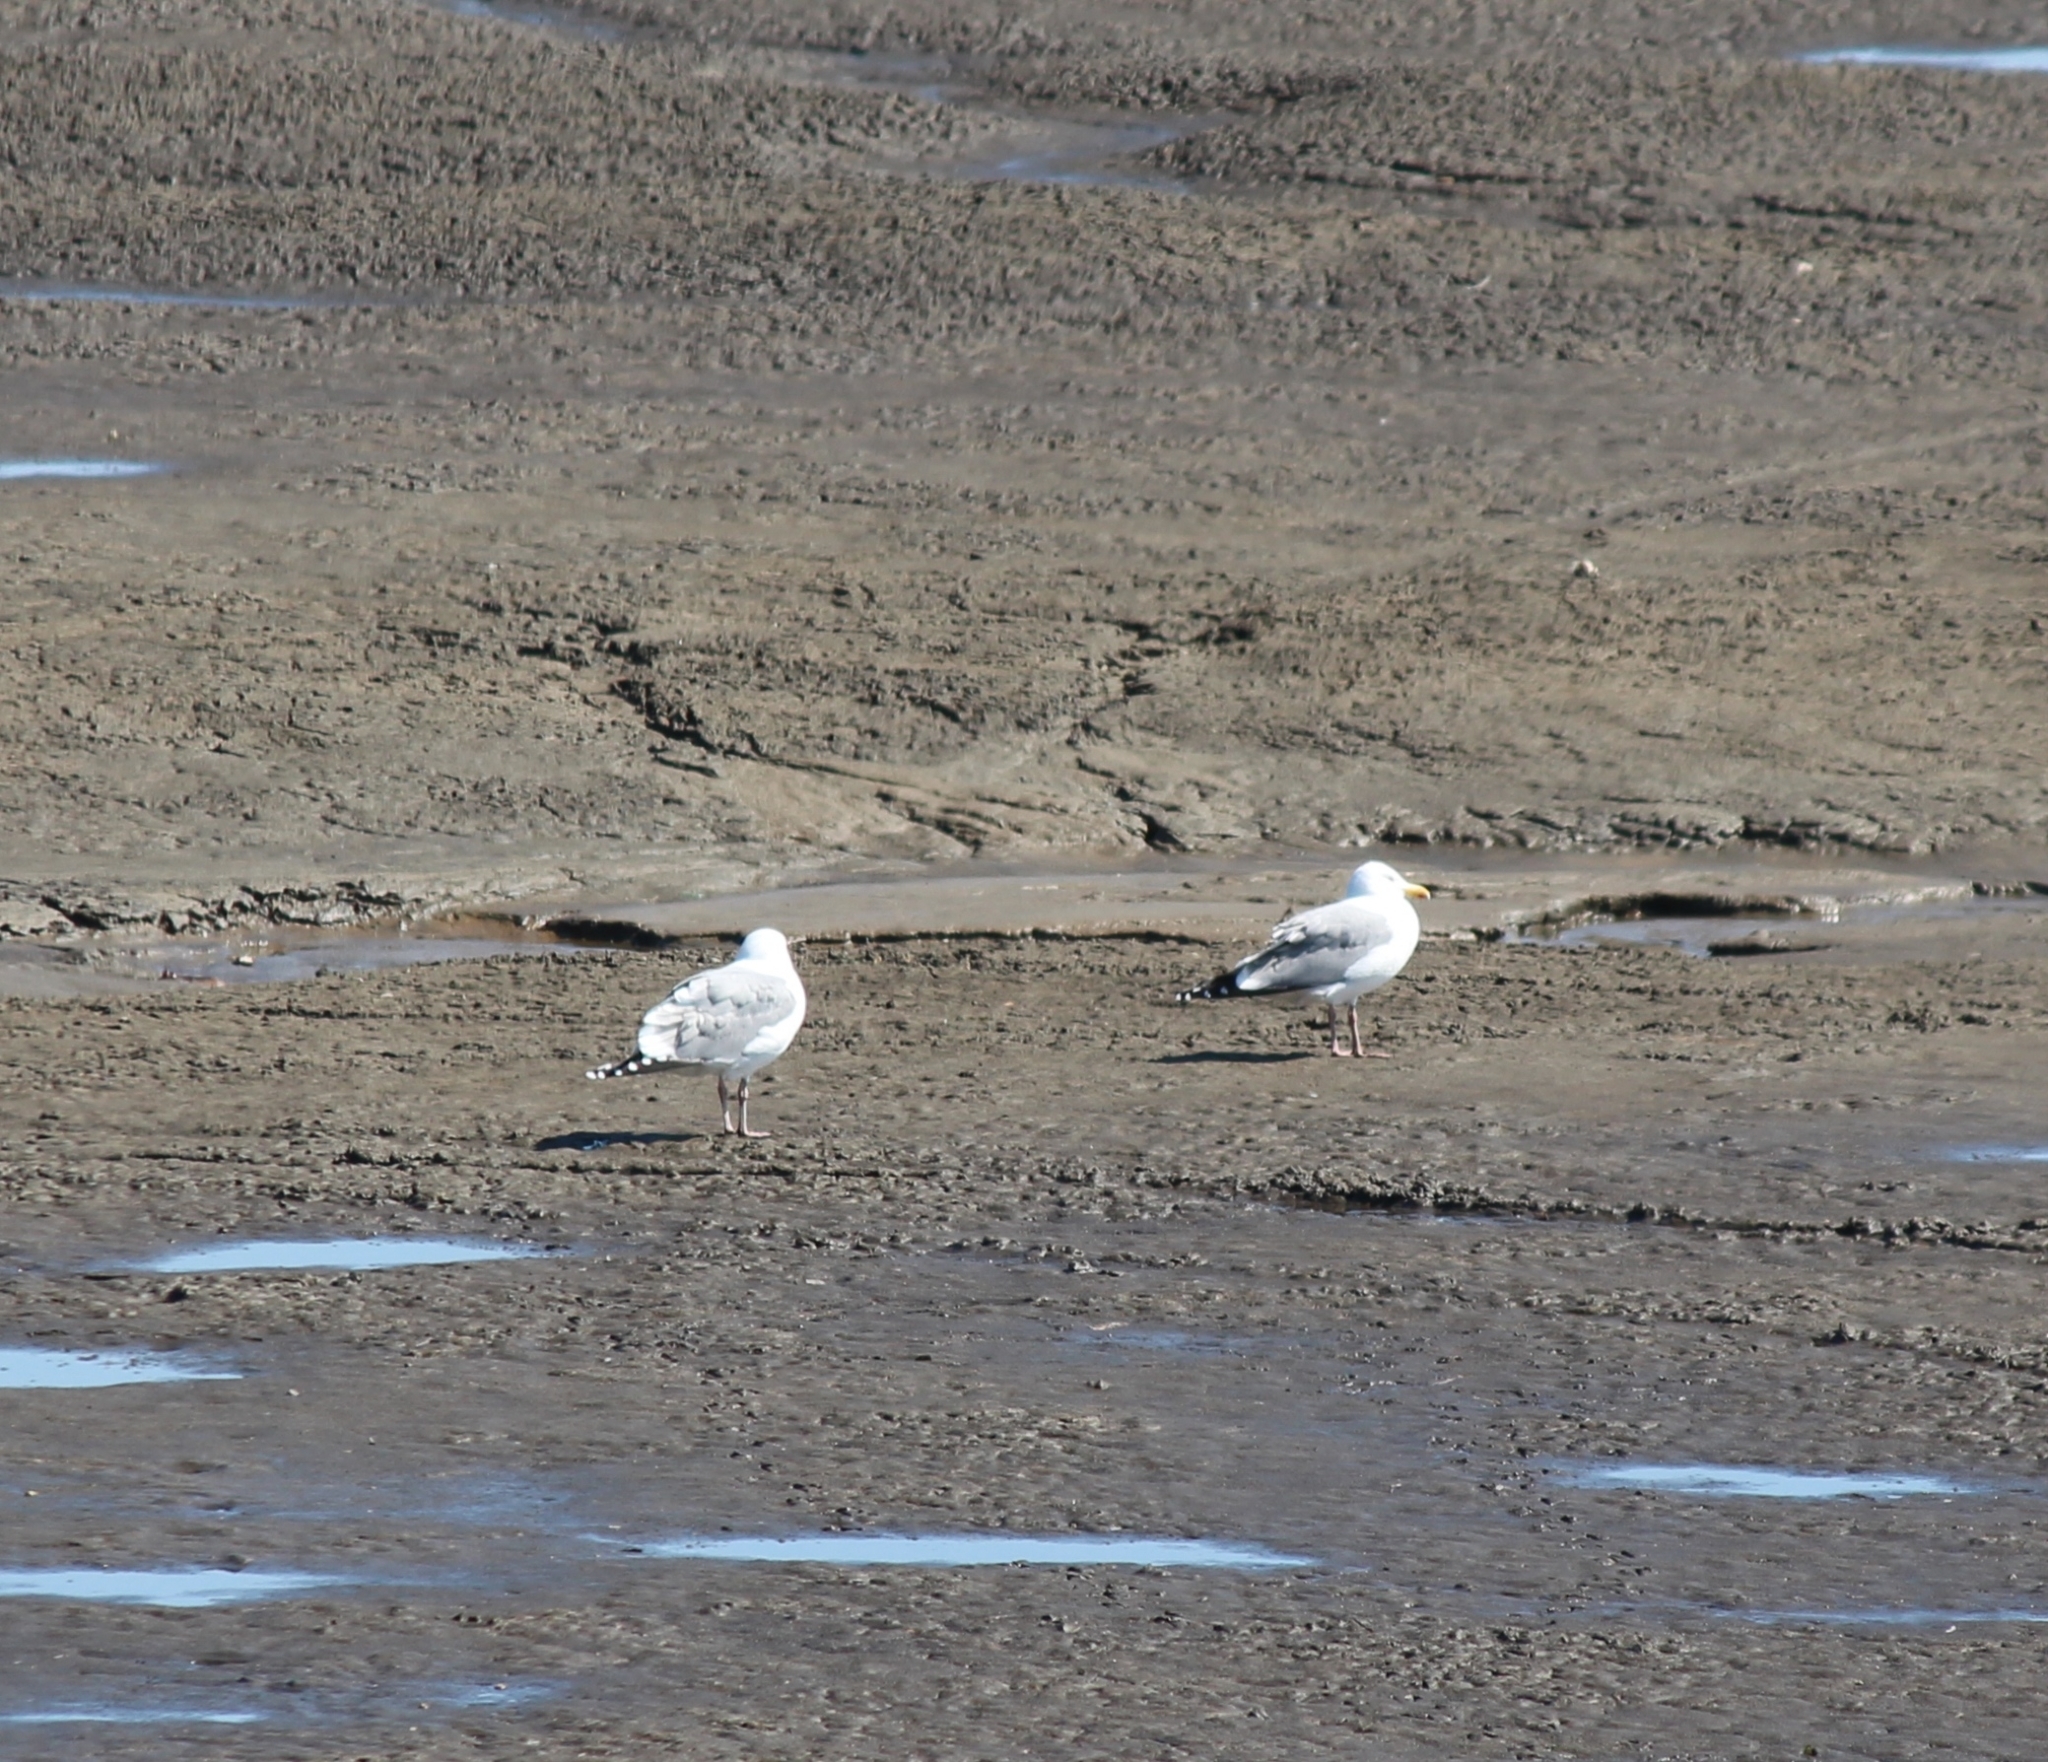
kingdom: Animalia
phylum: Chordata
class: Aves
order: Charadriiformes
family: Laridae
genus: Larus
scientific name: Larus vegae
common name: Vega gull
